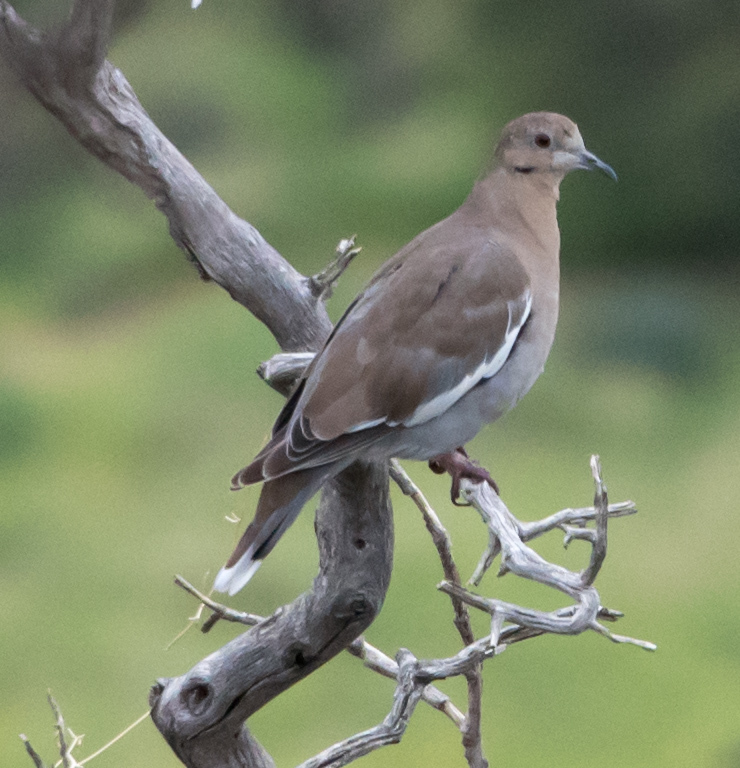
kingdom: Animalia
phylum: Chordata
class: Aves
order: Columbiformes
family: Columbidae
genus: Zenaida
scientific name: Zenaida asiatica
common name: White-winged dove
